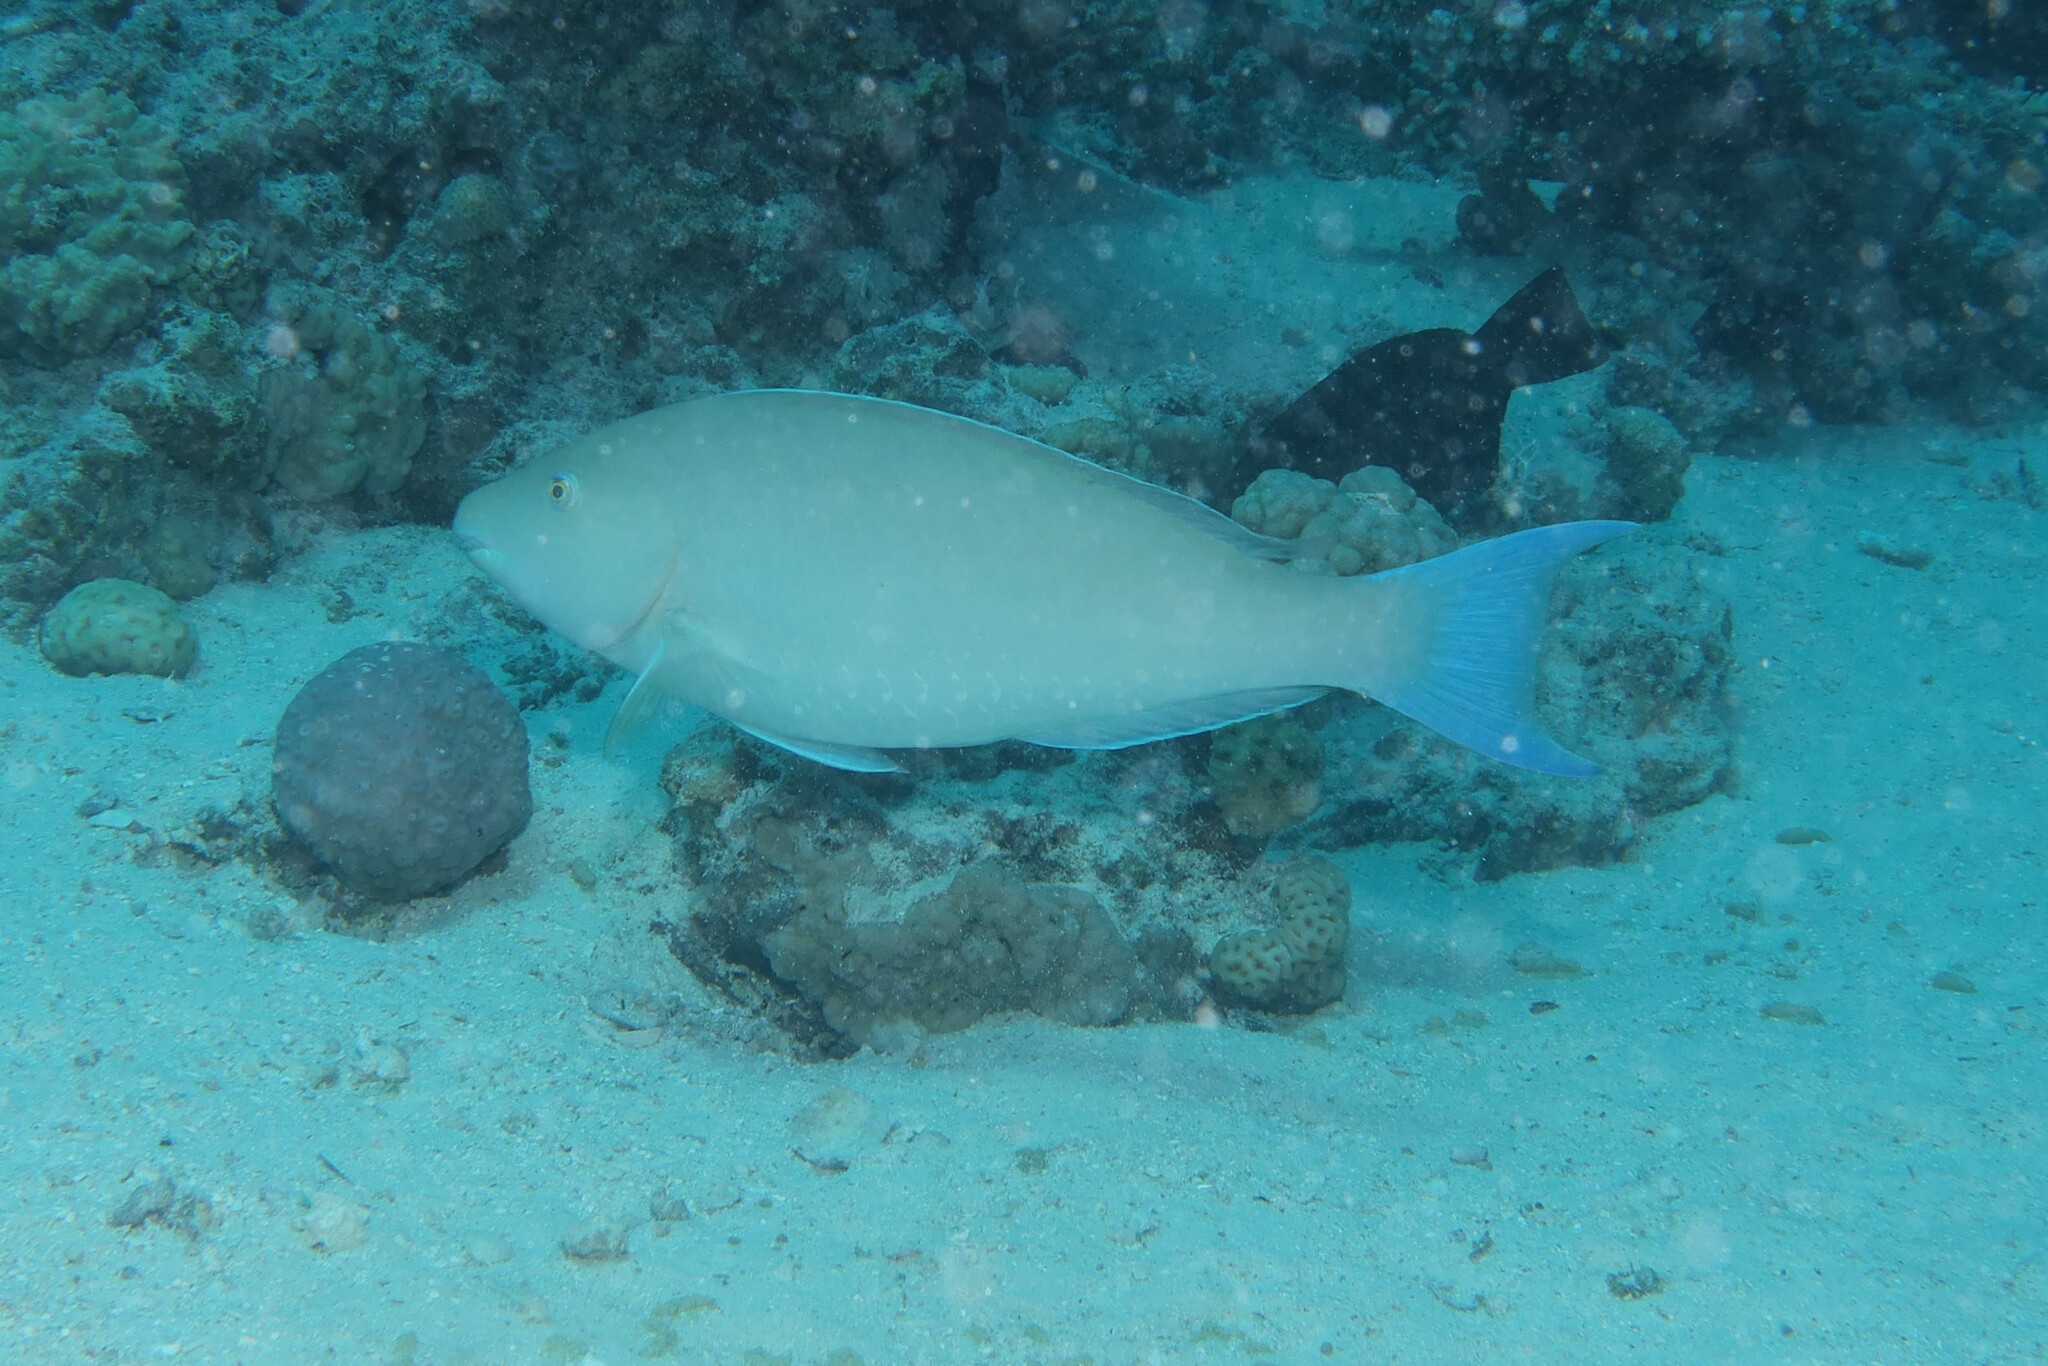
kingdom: Animalia
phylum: Chordata
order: Perciformes
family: Scaridae
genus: Hipposcarus
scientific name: Hipposcarus harid
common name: Candelamoa parrotfish
